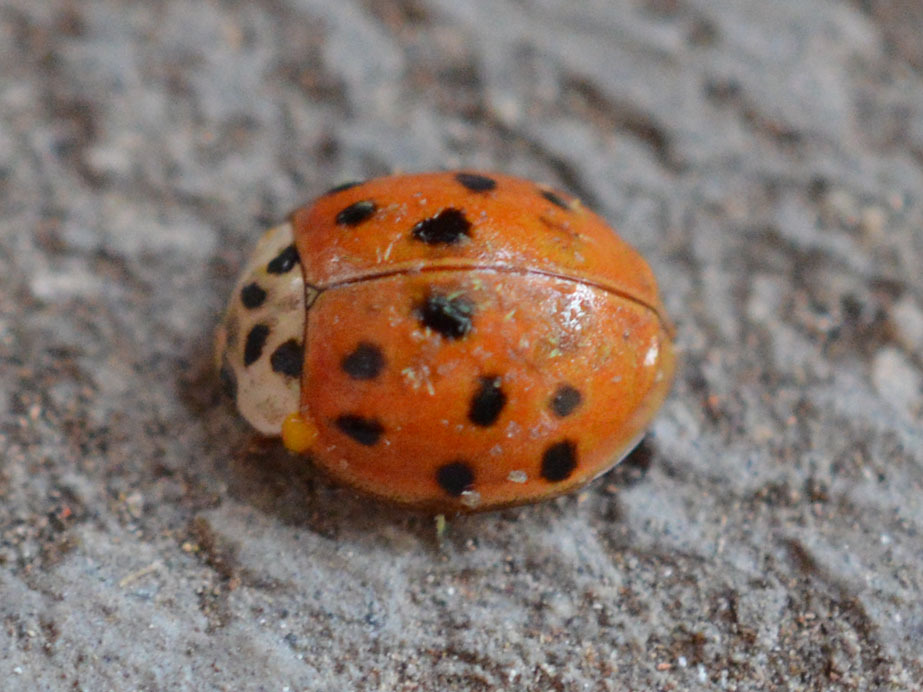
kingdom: Fungi
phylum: Ascomycota
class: Laboulbeniomycetes
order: Laboulbeniales
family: Laboulbeniaceae
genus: Hesperomyces
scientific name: Hesperomyces harmoniae
